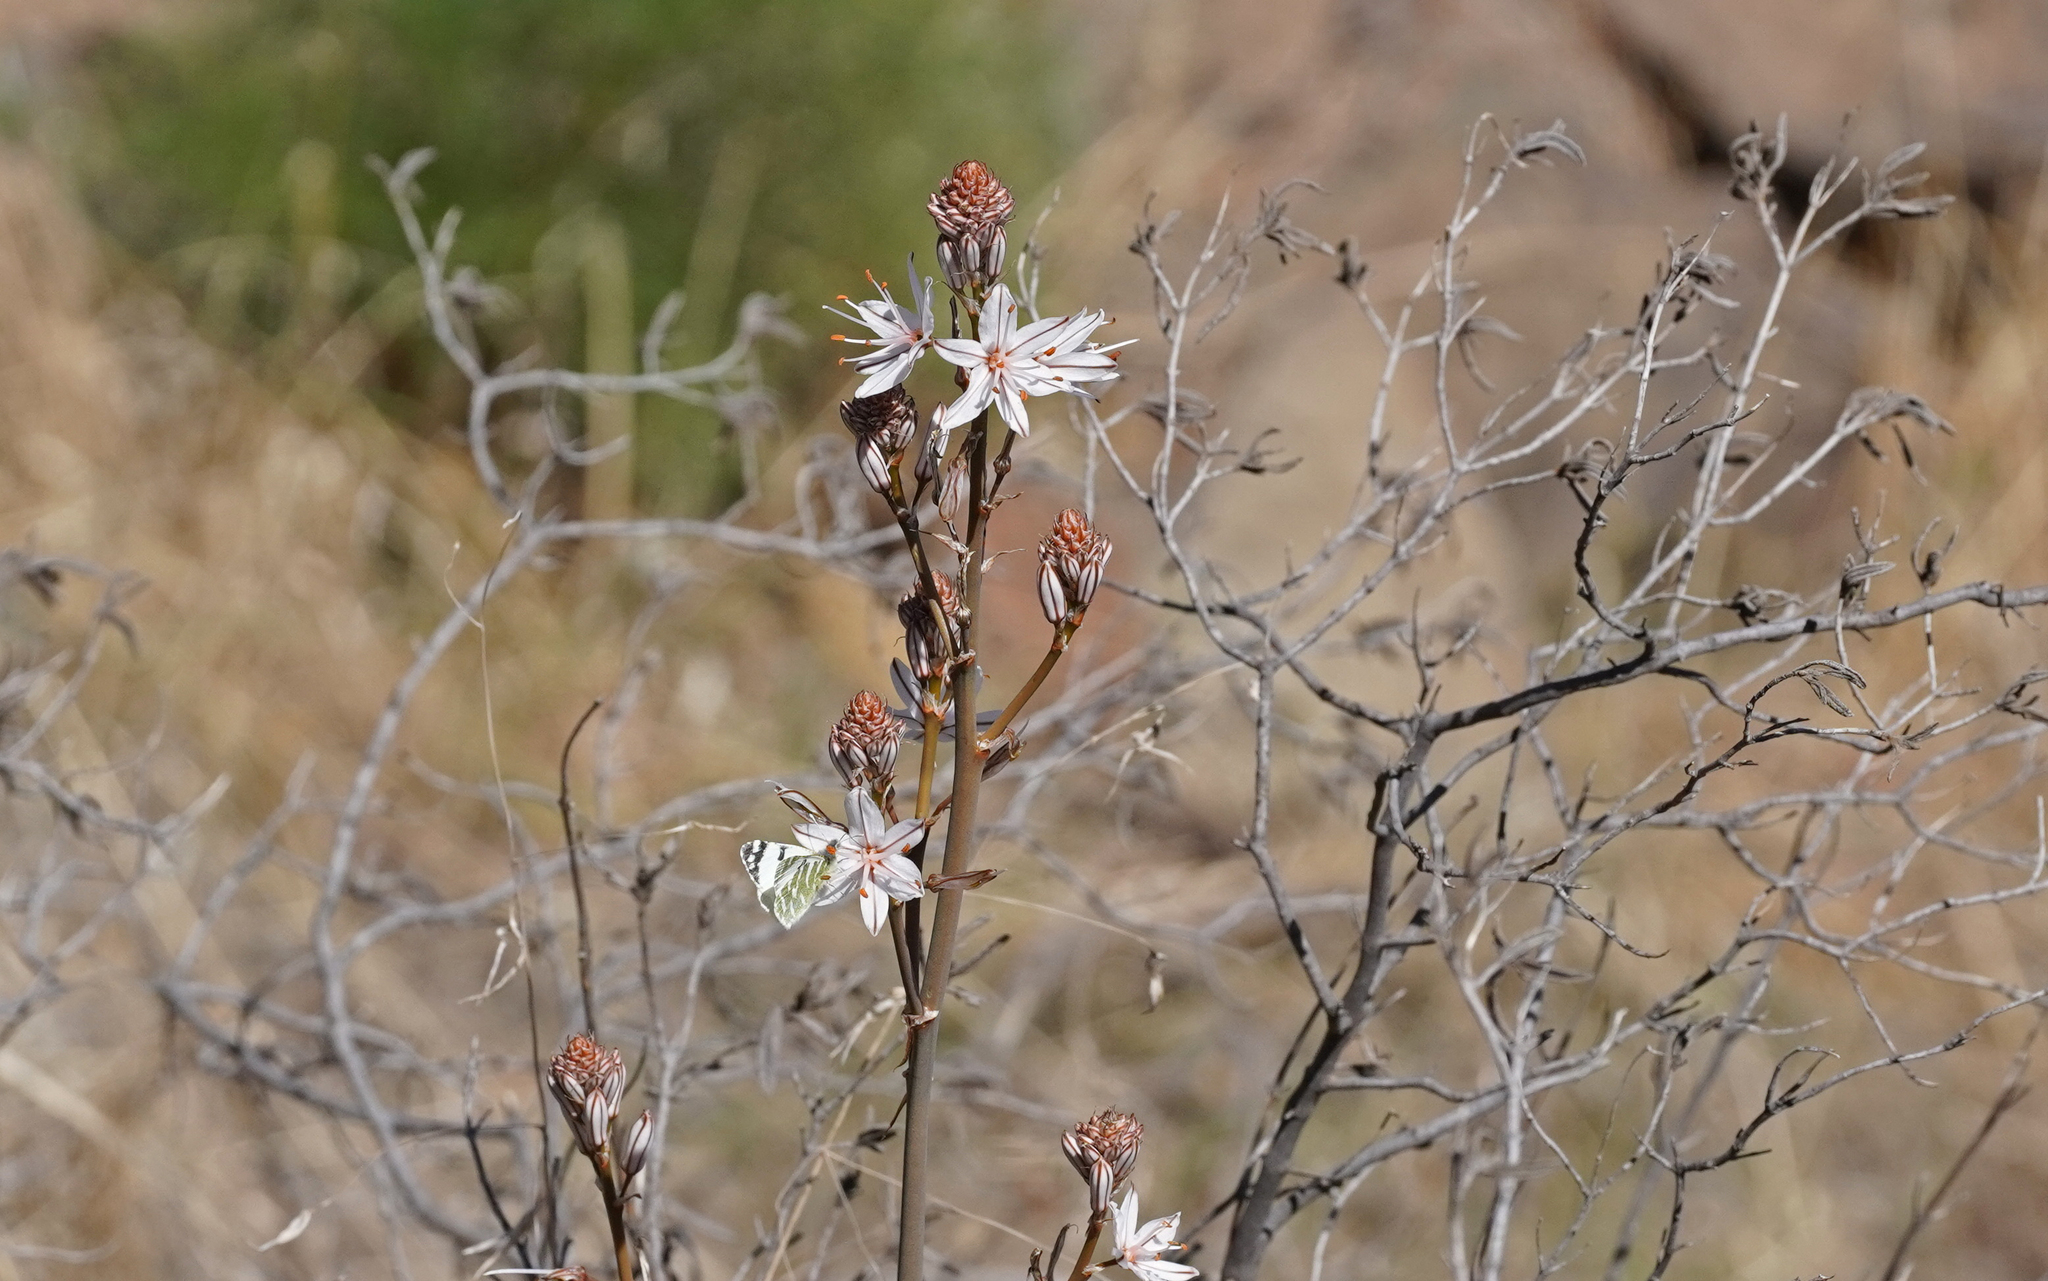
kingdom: Animalia
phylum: Arthropoda
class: Insecta
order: Lepidoptera
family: Pieridae
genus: Euchloe
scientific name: Euchloe grancanariensis
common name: Gran canaria green-striped white
